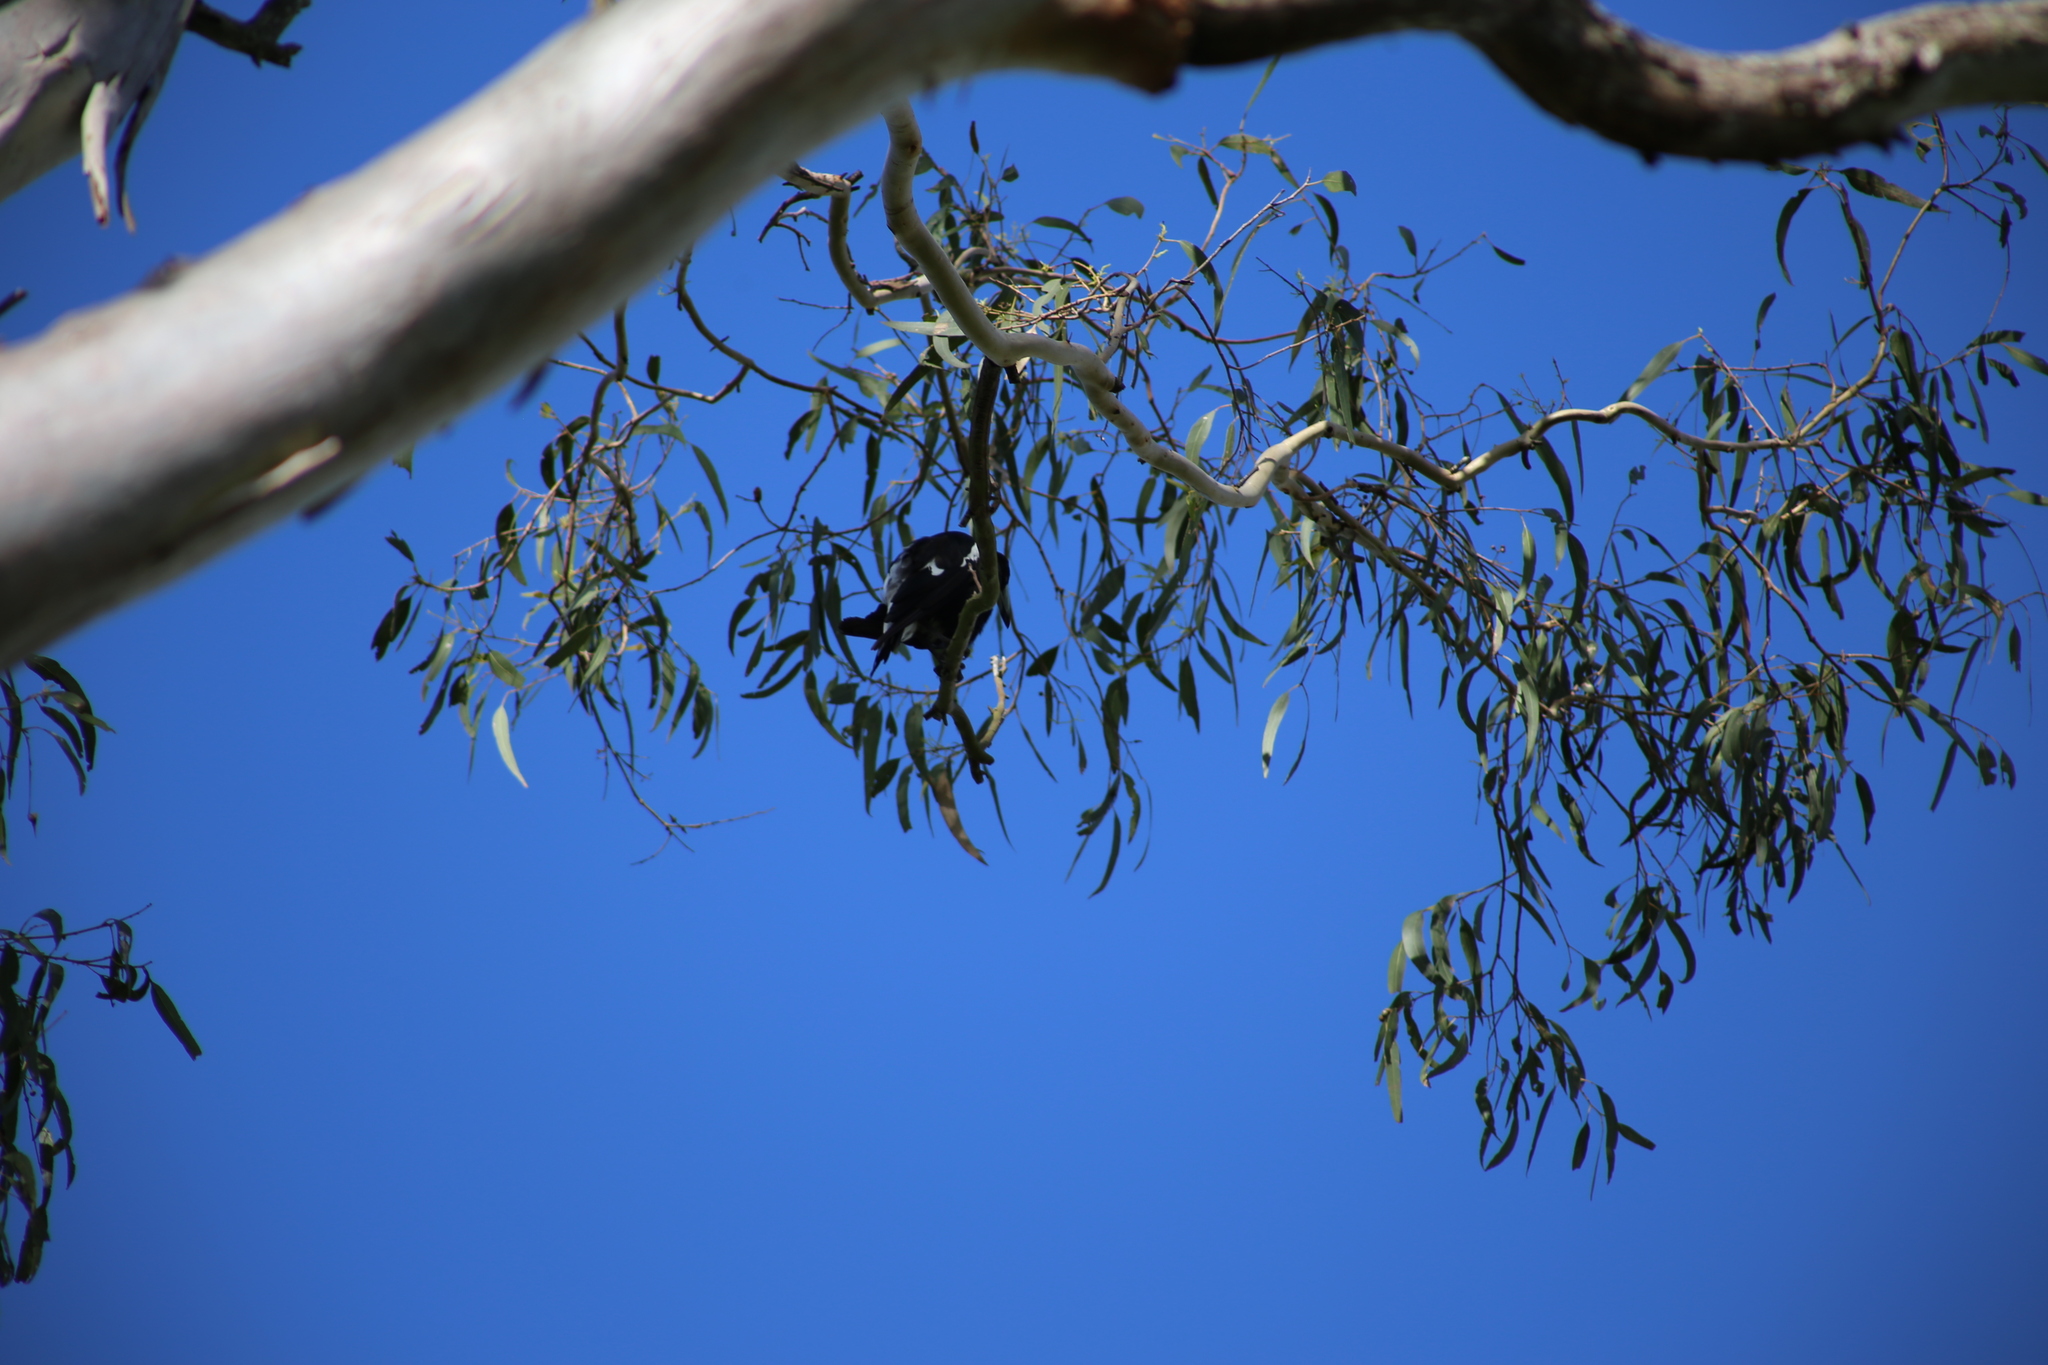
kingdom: Animalia
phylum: Chordata
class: Aves
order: Passeriformes
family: Cracticidae
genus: Gymnorhina
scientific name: Gymnorhina tibicen
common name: Australian magpie
